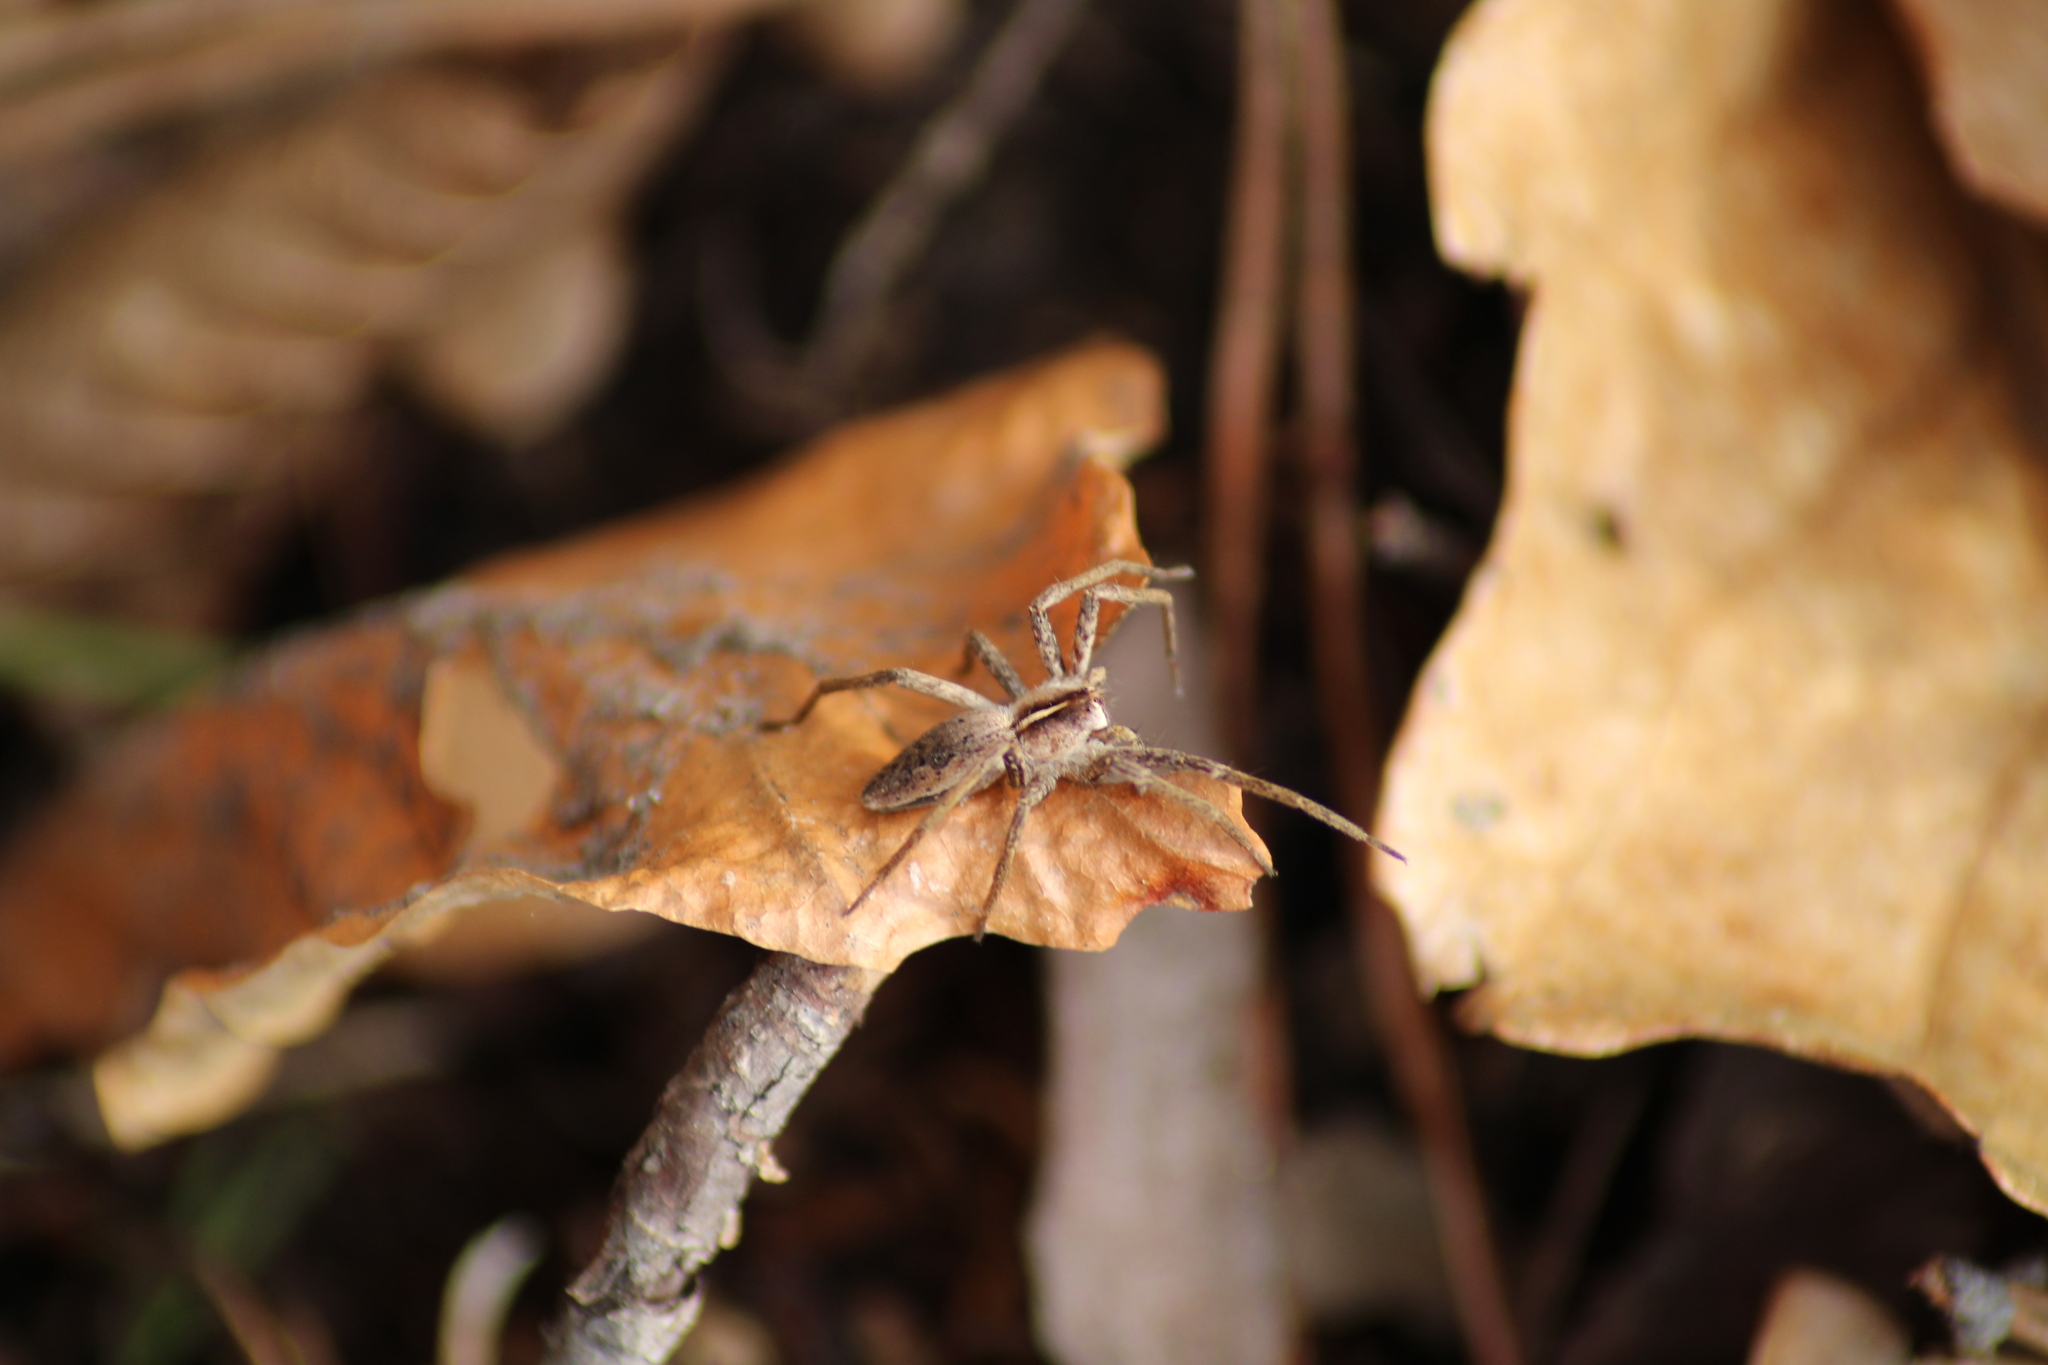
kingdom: Animalia
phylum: Arthropoda
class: Arachnida
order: Araneae
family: Pisauridae
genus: Pisaura
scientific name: Pisaura mirabilis
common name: Tent spider
